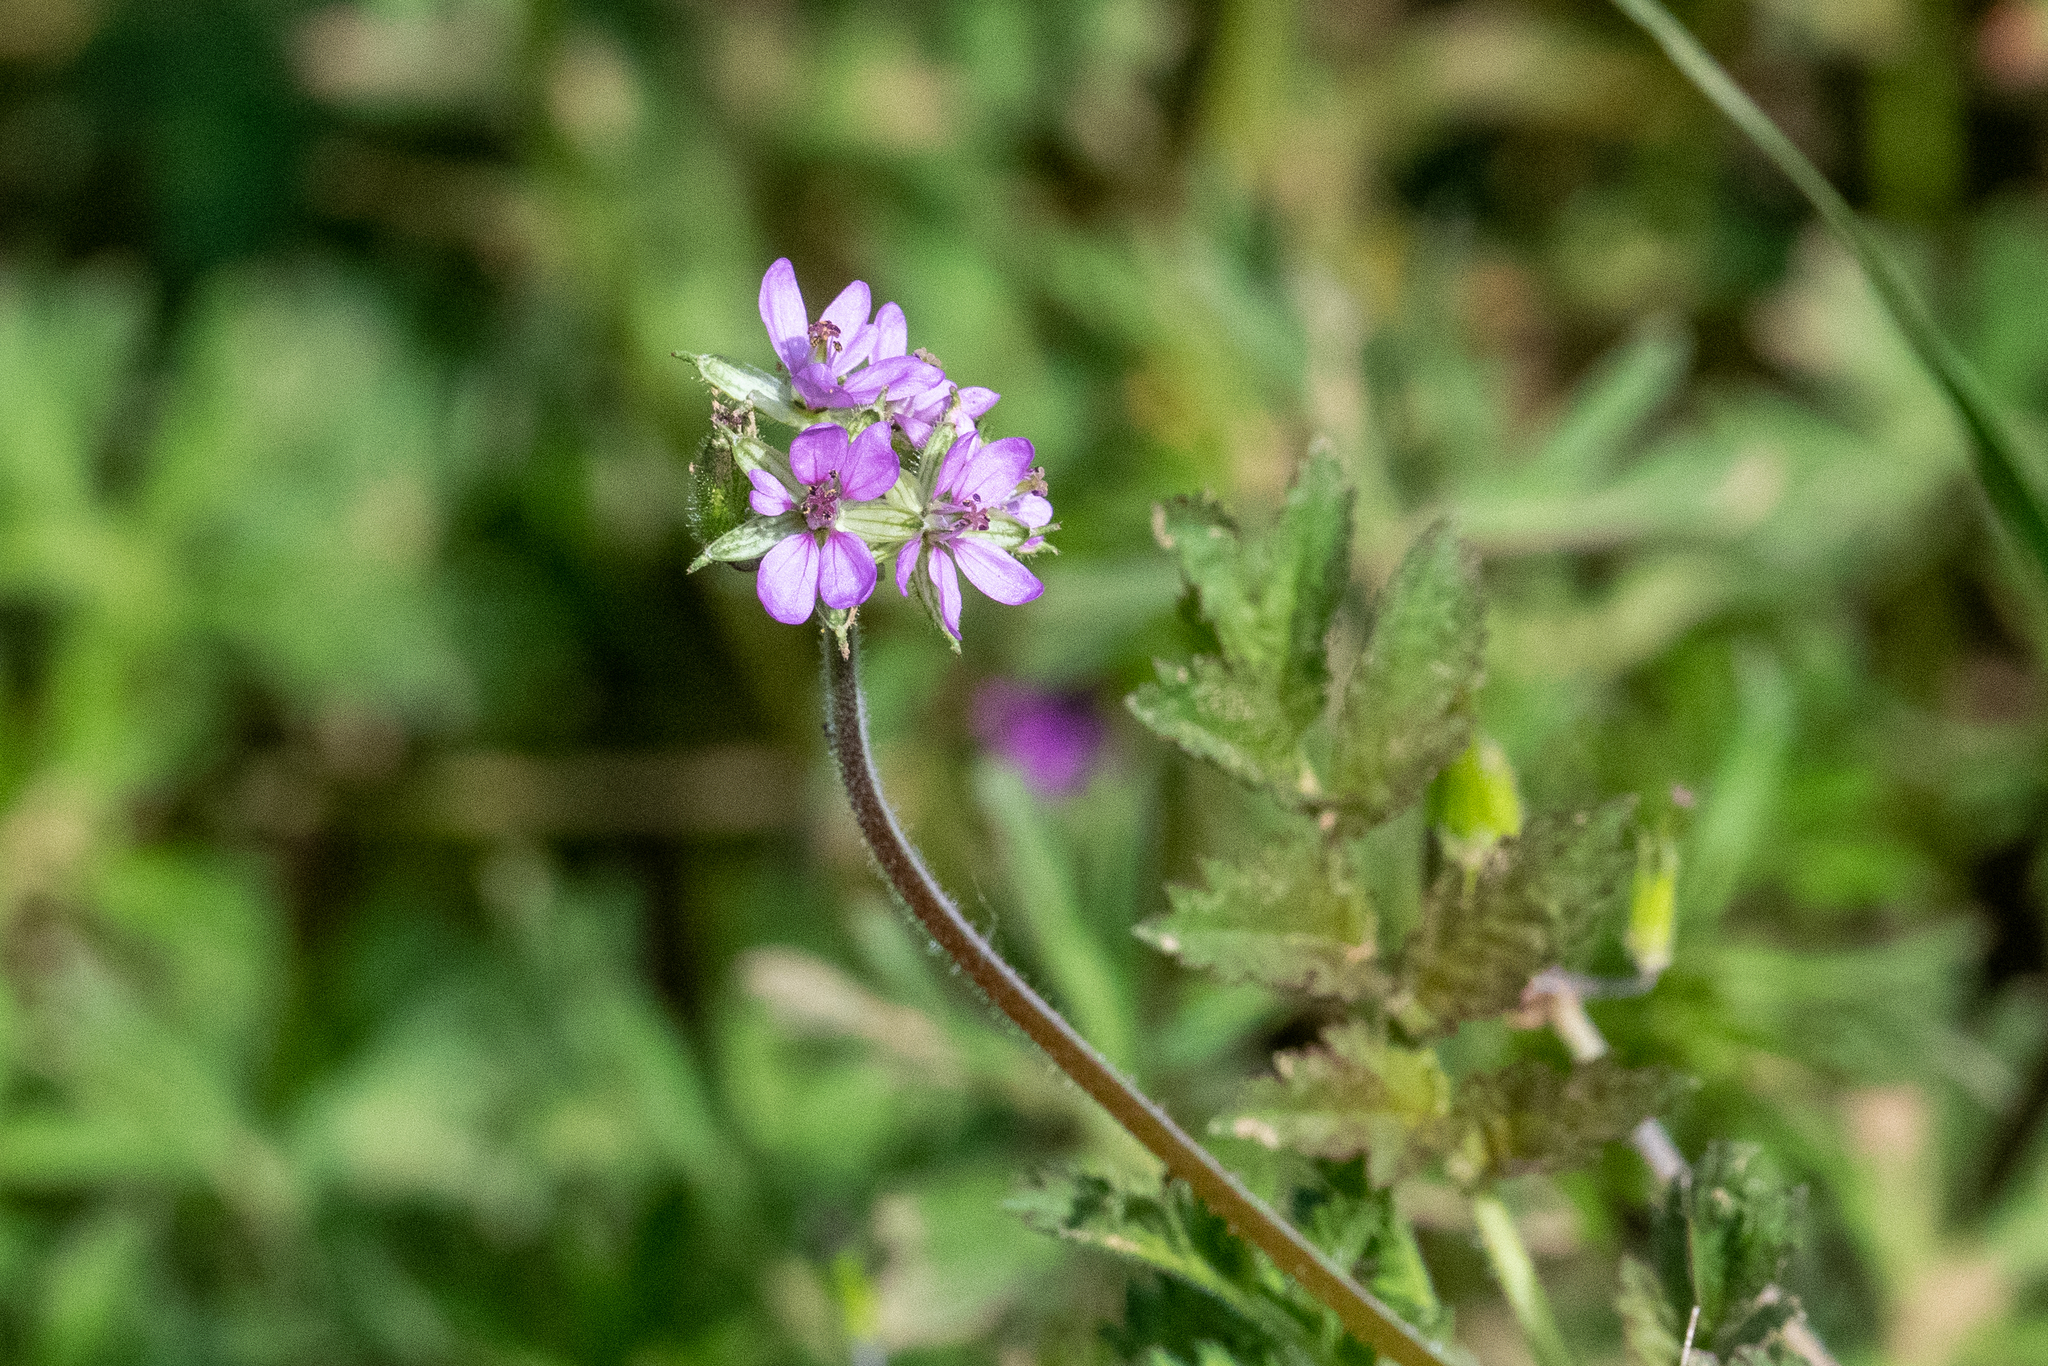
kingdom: Plantae
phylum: Tracheophyta
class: Magnoliopsida
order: Geraniales
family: Geraniaceae
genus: Erodium
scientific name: Erodium moschatum
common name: Musk stork's-bill
